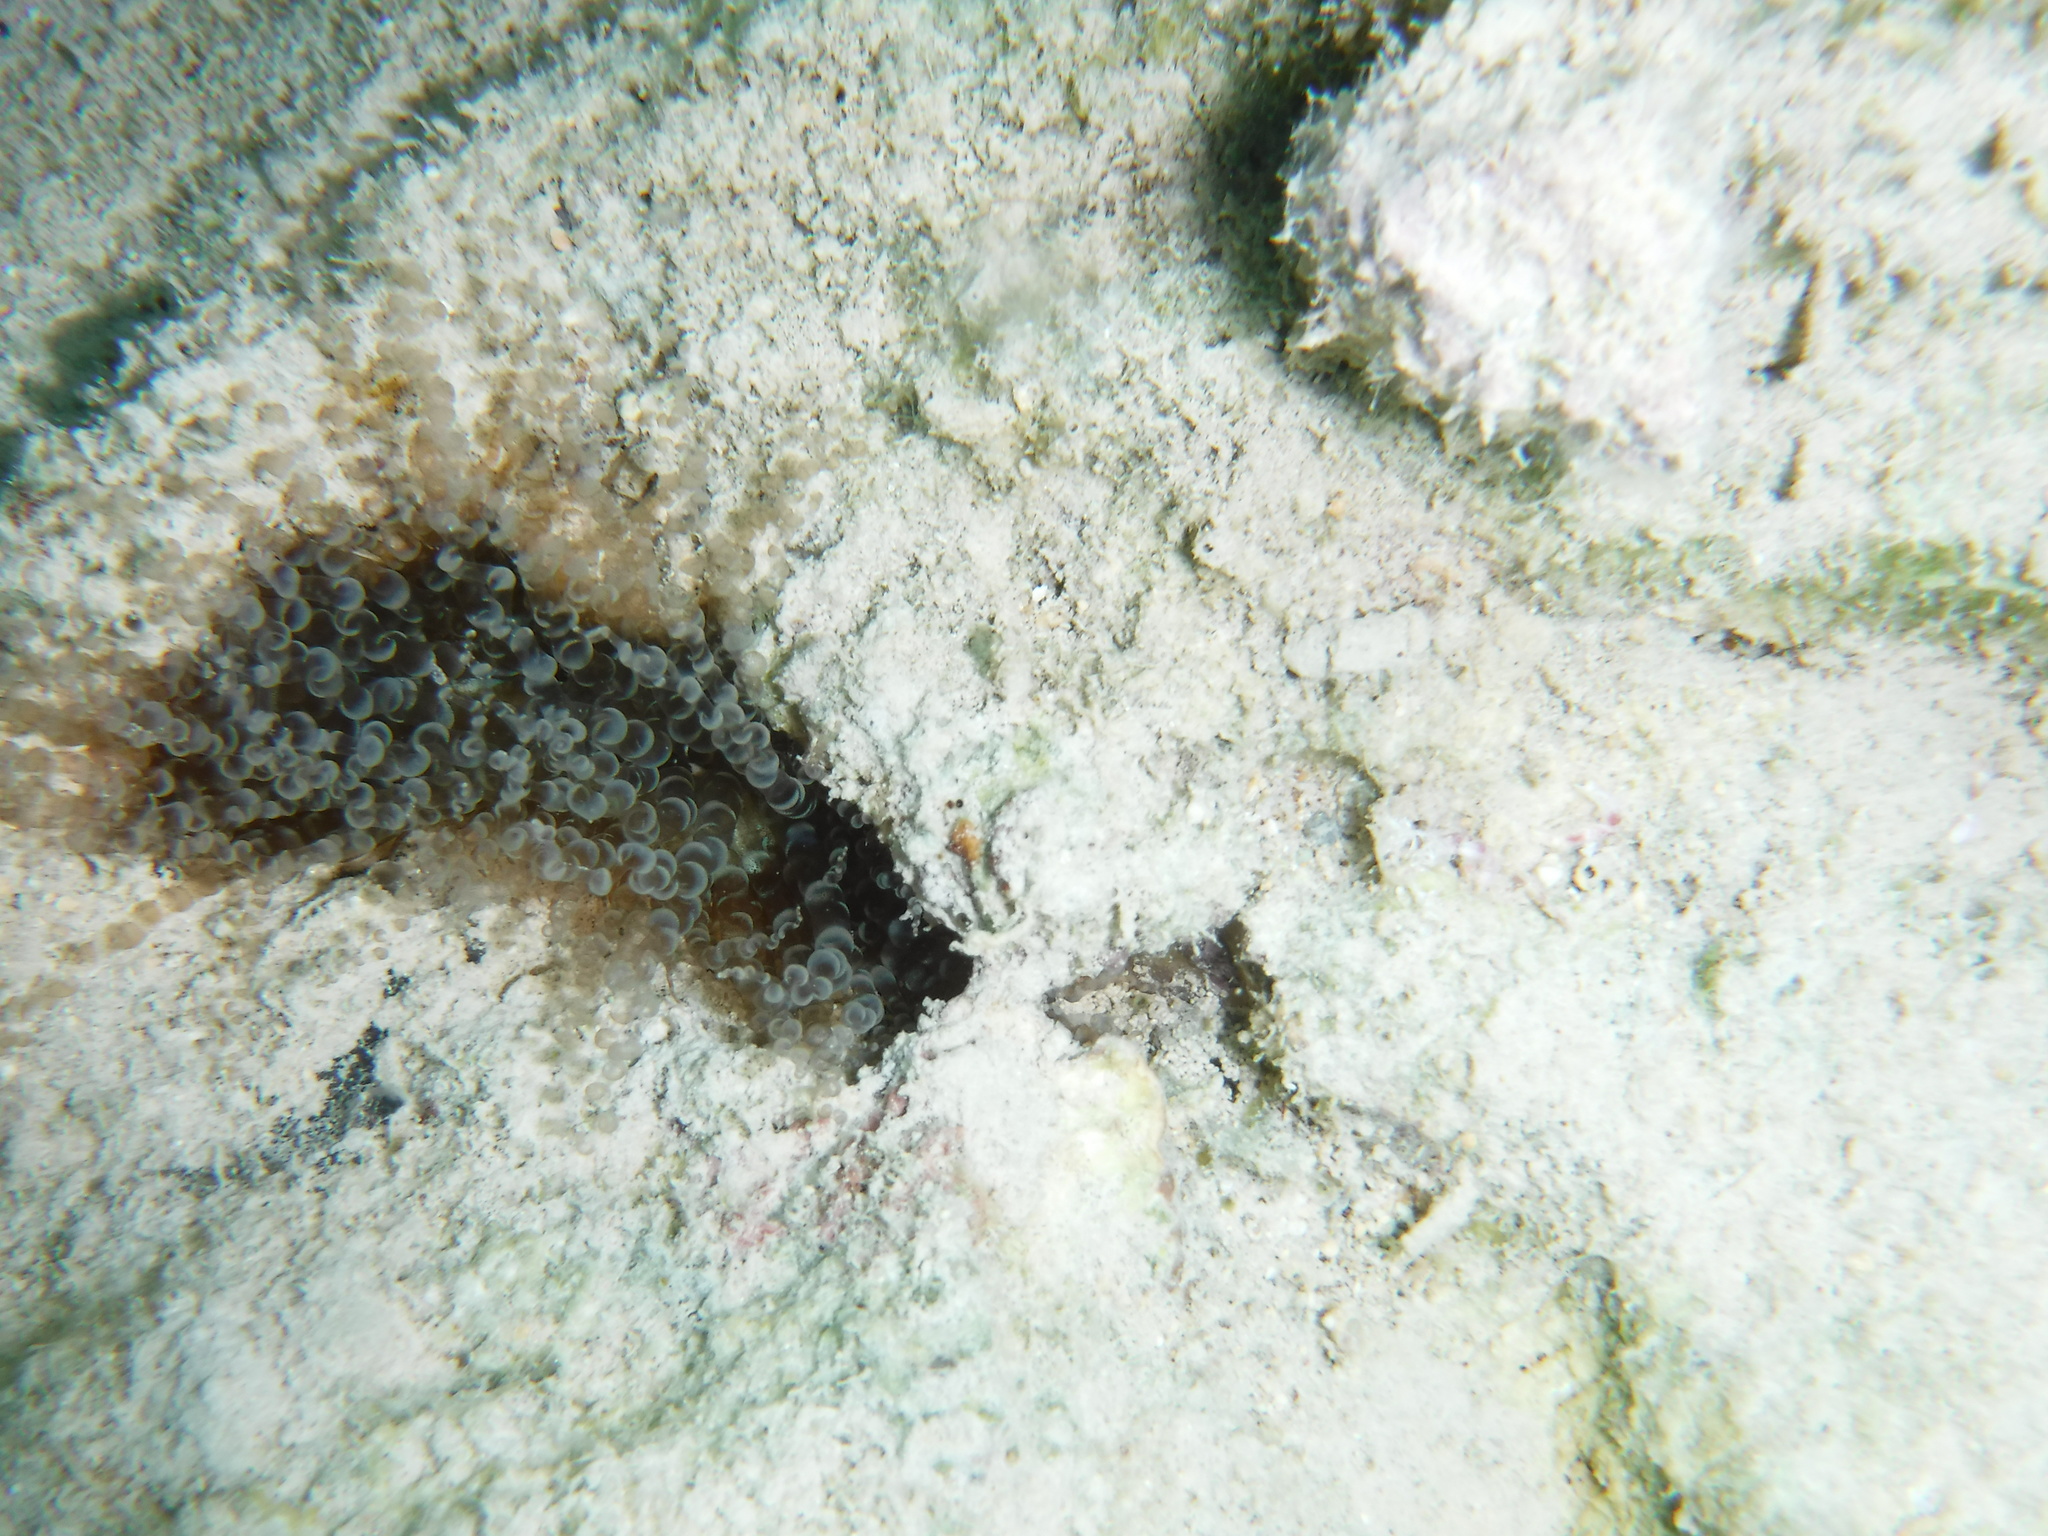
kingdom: Animalia
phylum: Cnidaria
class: Anthozoa
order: Actiniaria
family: Aiptasiidae
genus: Bartholomea
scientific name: Bartholomea annulata
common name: Corkscrew anemone
